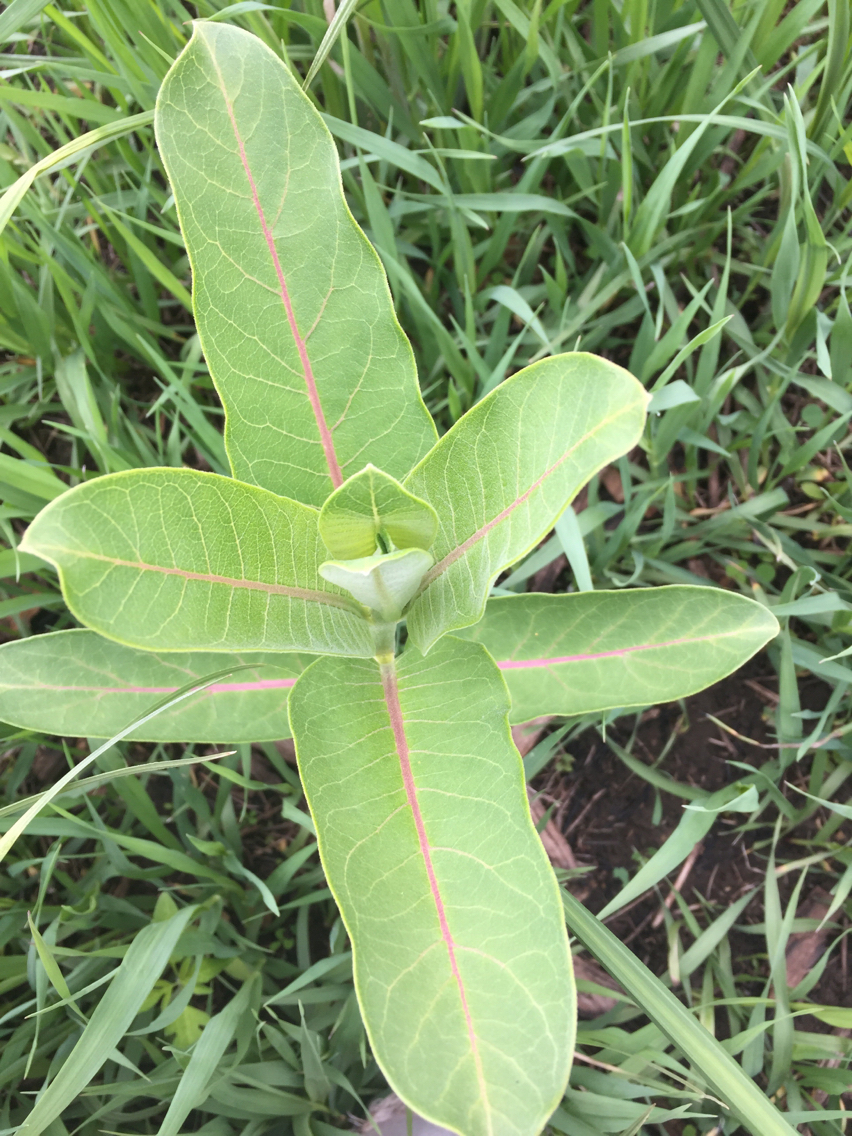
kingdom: Plantae
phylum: Tracheophyta
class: Magnoliopsida
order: Gentianales
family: Apocynaceae
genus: Asclepias
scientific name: Asclepias syriaca
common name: Common milkweed
